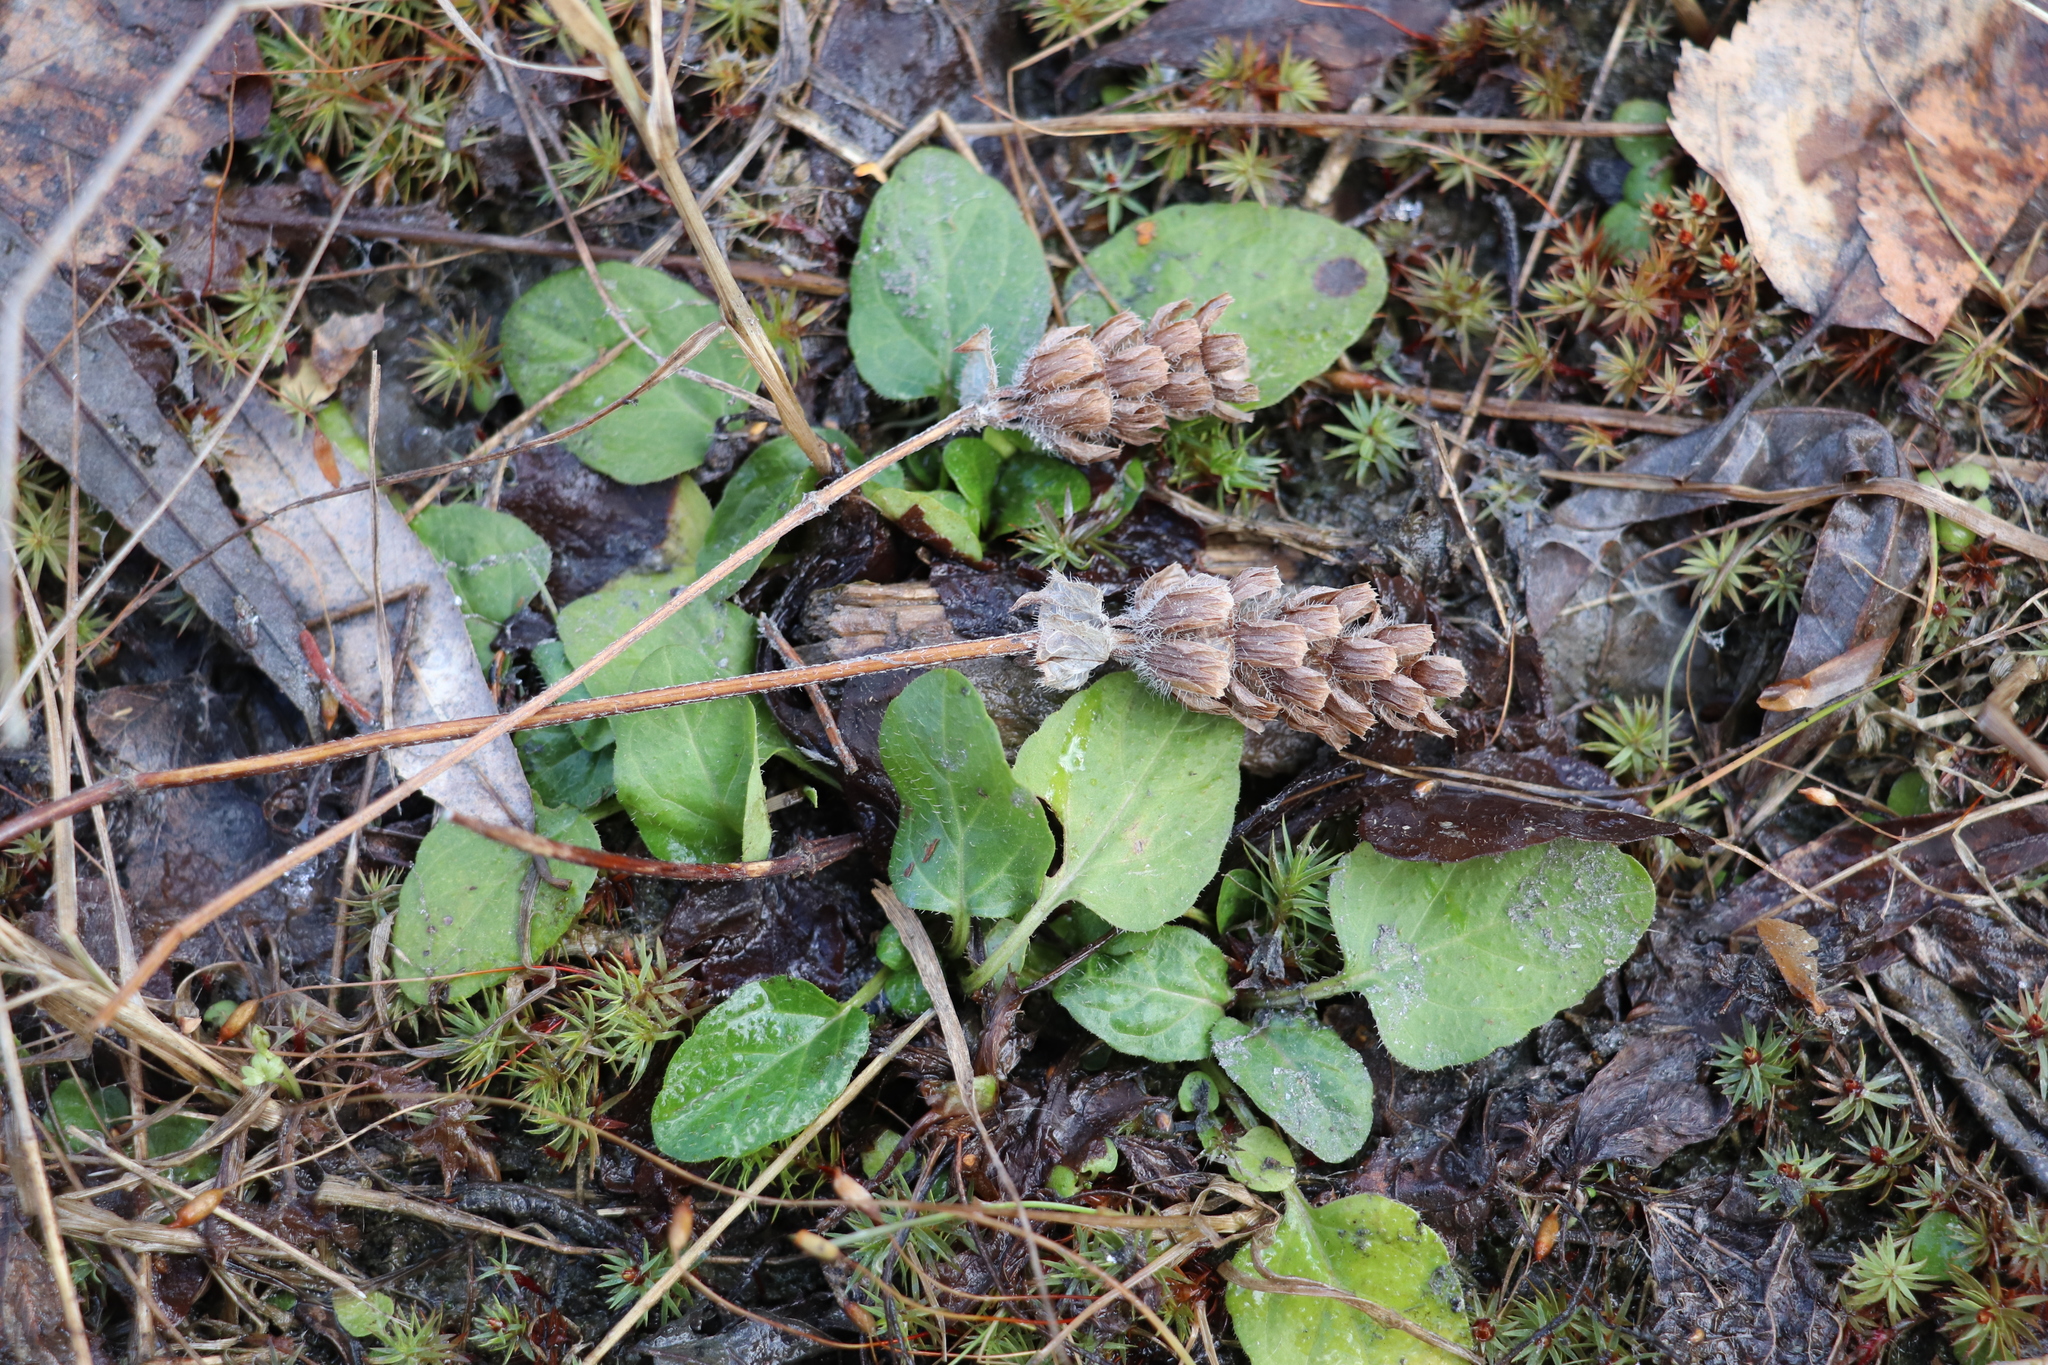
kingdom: Plantae
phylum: Tracheophyta
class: Magnoliopsida
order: Lamiales
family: Lamiaceae
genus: Prunella
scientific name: Prunella vulgaris
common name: Heal-all
